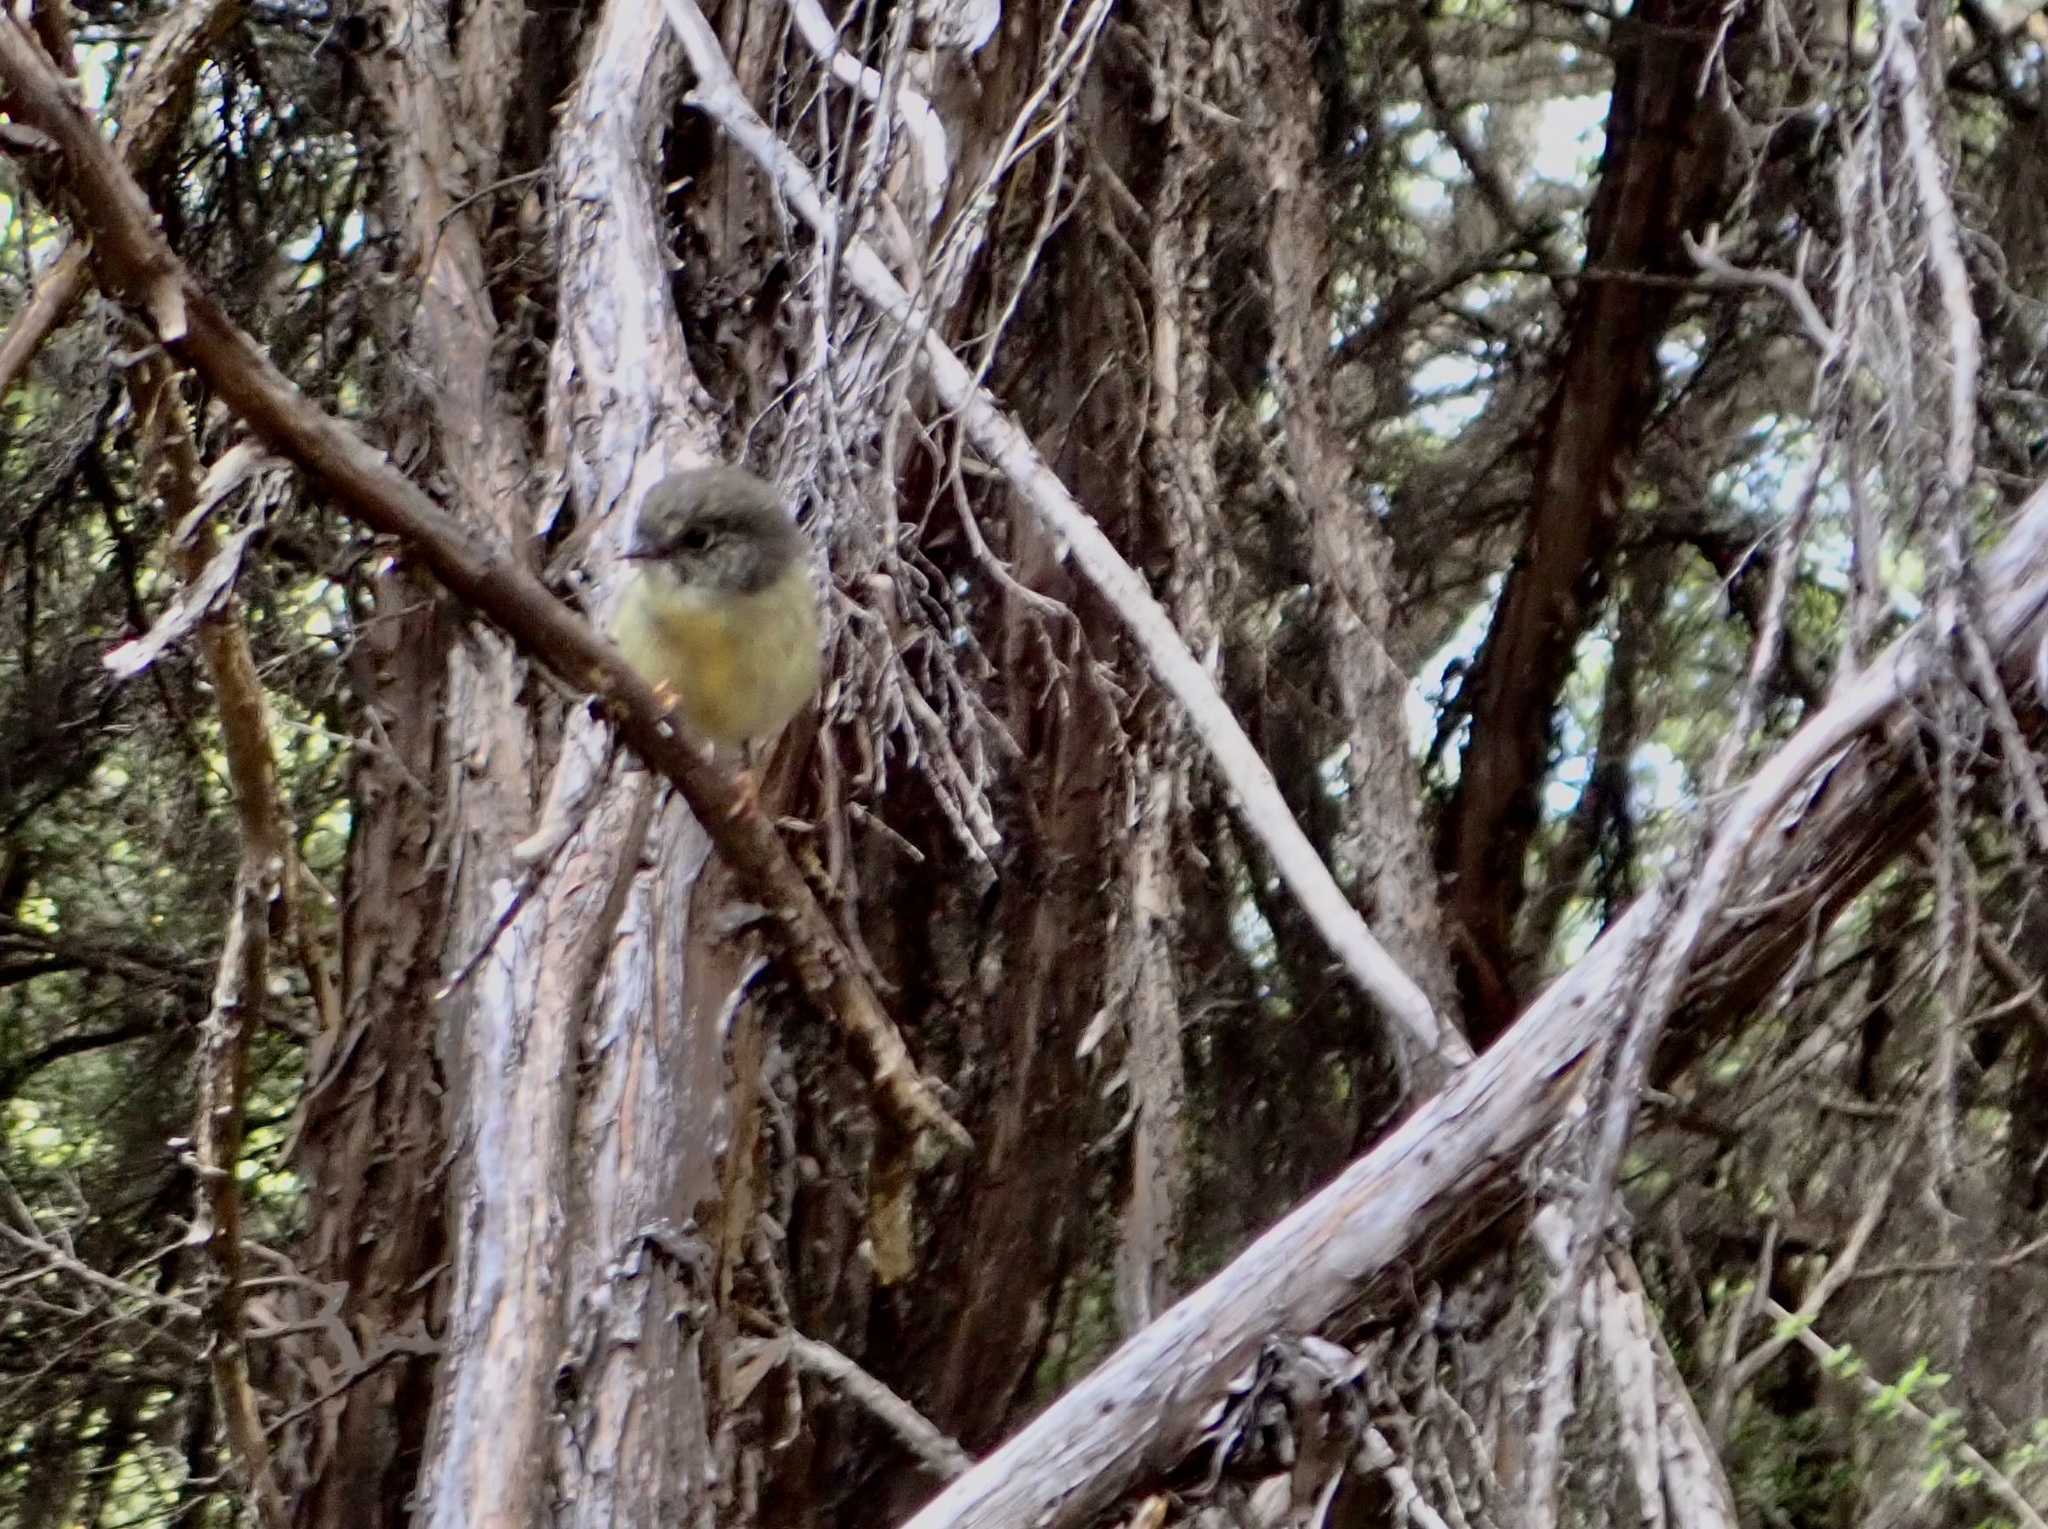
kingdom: Animalia
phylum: Chordata
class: Aves
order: Passeriformes
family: Petroicidae
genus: Petroica
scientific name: Petroica macrocephala
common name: Tomtit
